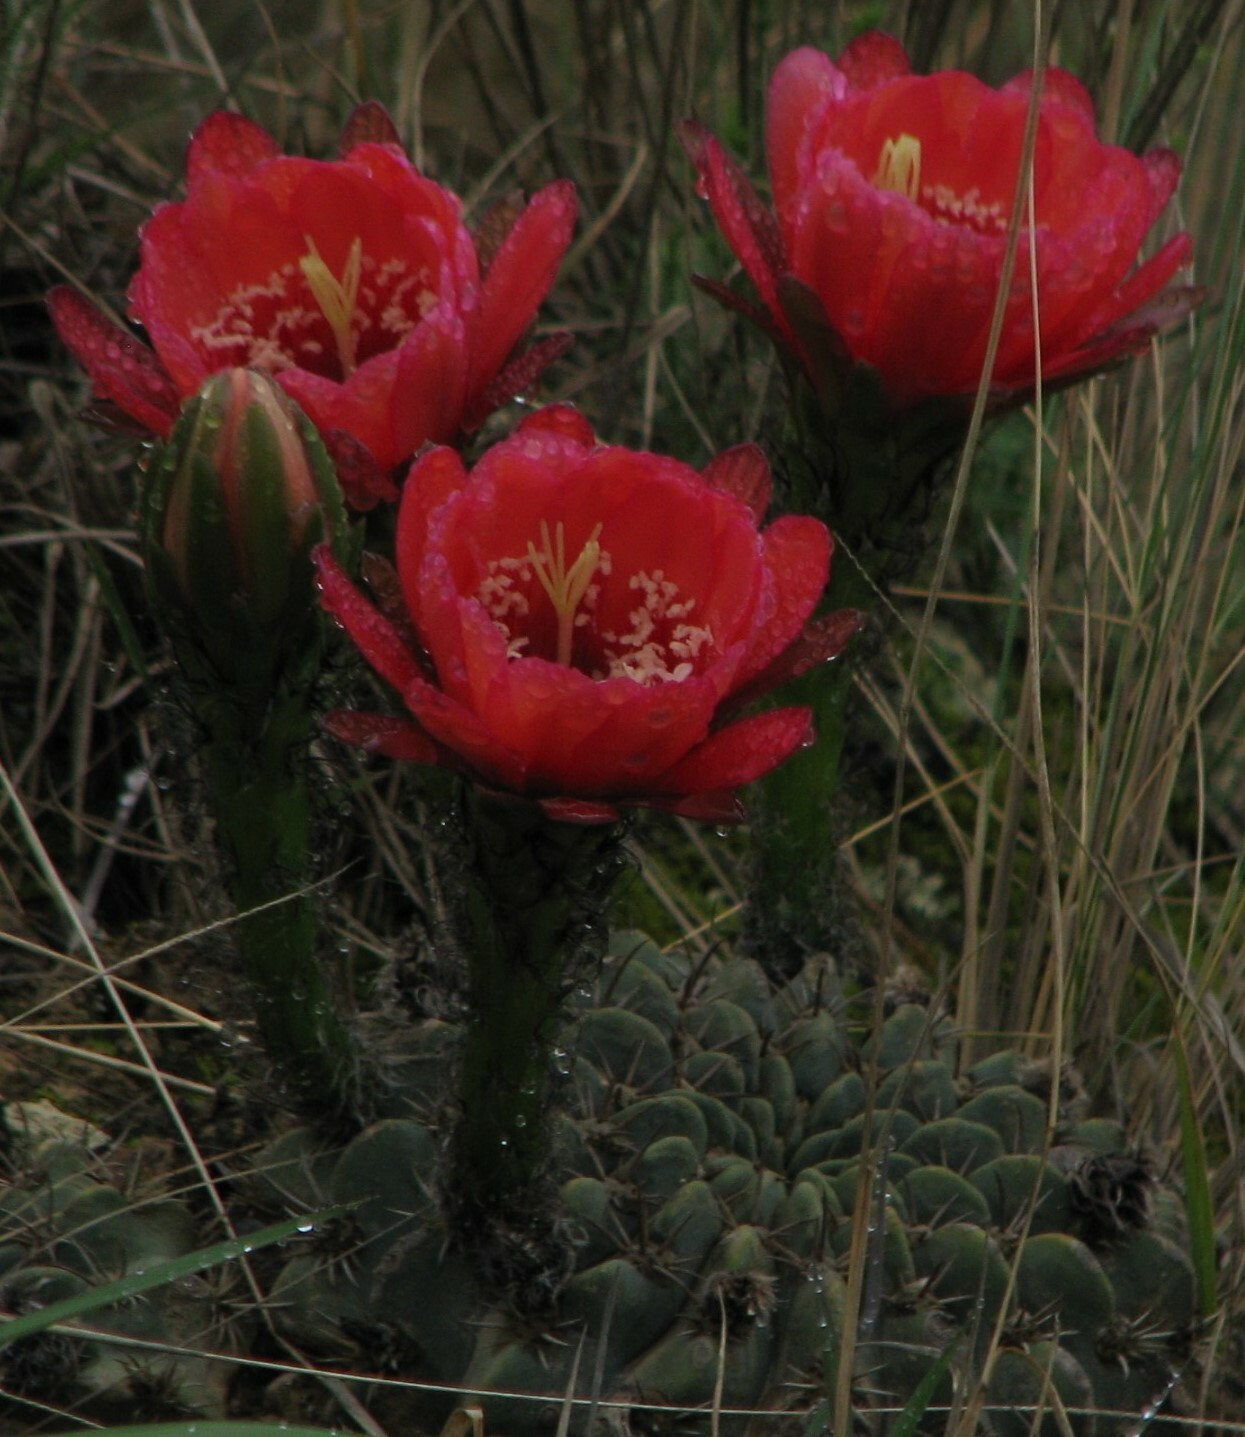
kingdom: Plantae
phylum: Tracheophyta
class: Magnoliopsida
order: Caryophyllales
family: Cactaceae
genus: Lobivia
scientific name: Lobivia calorubra
